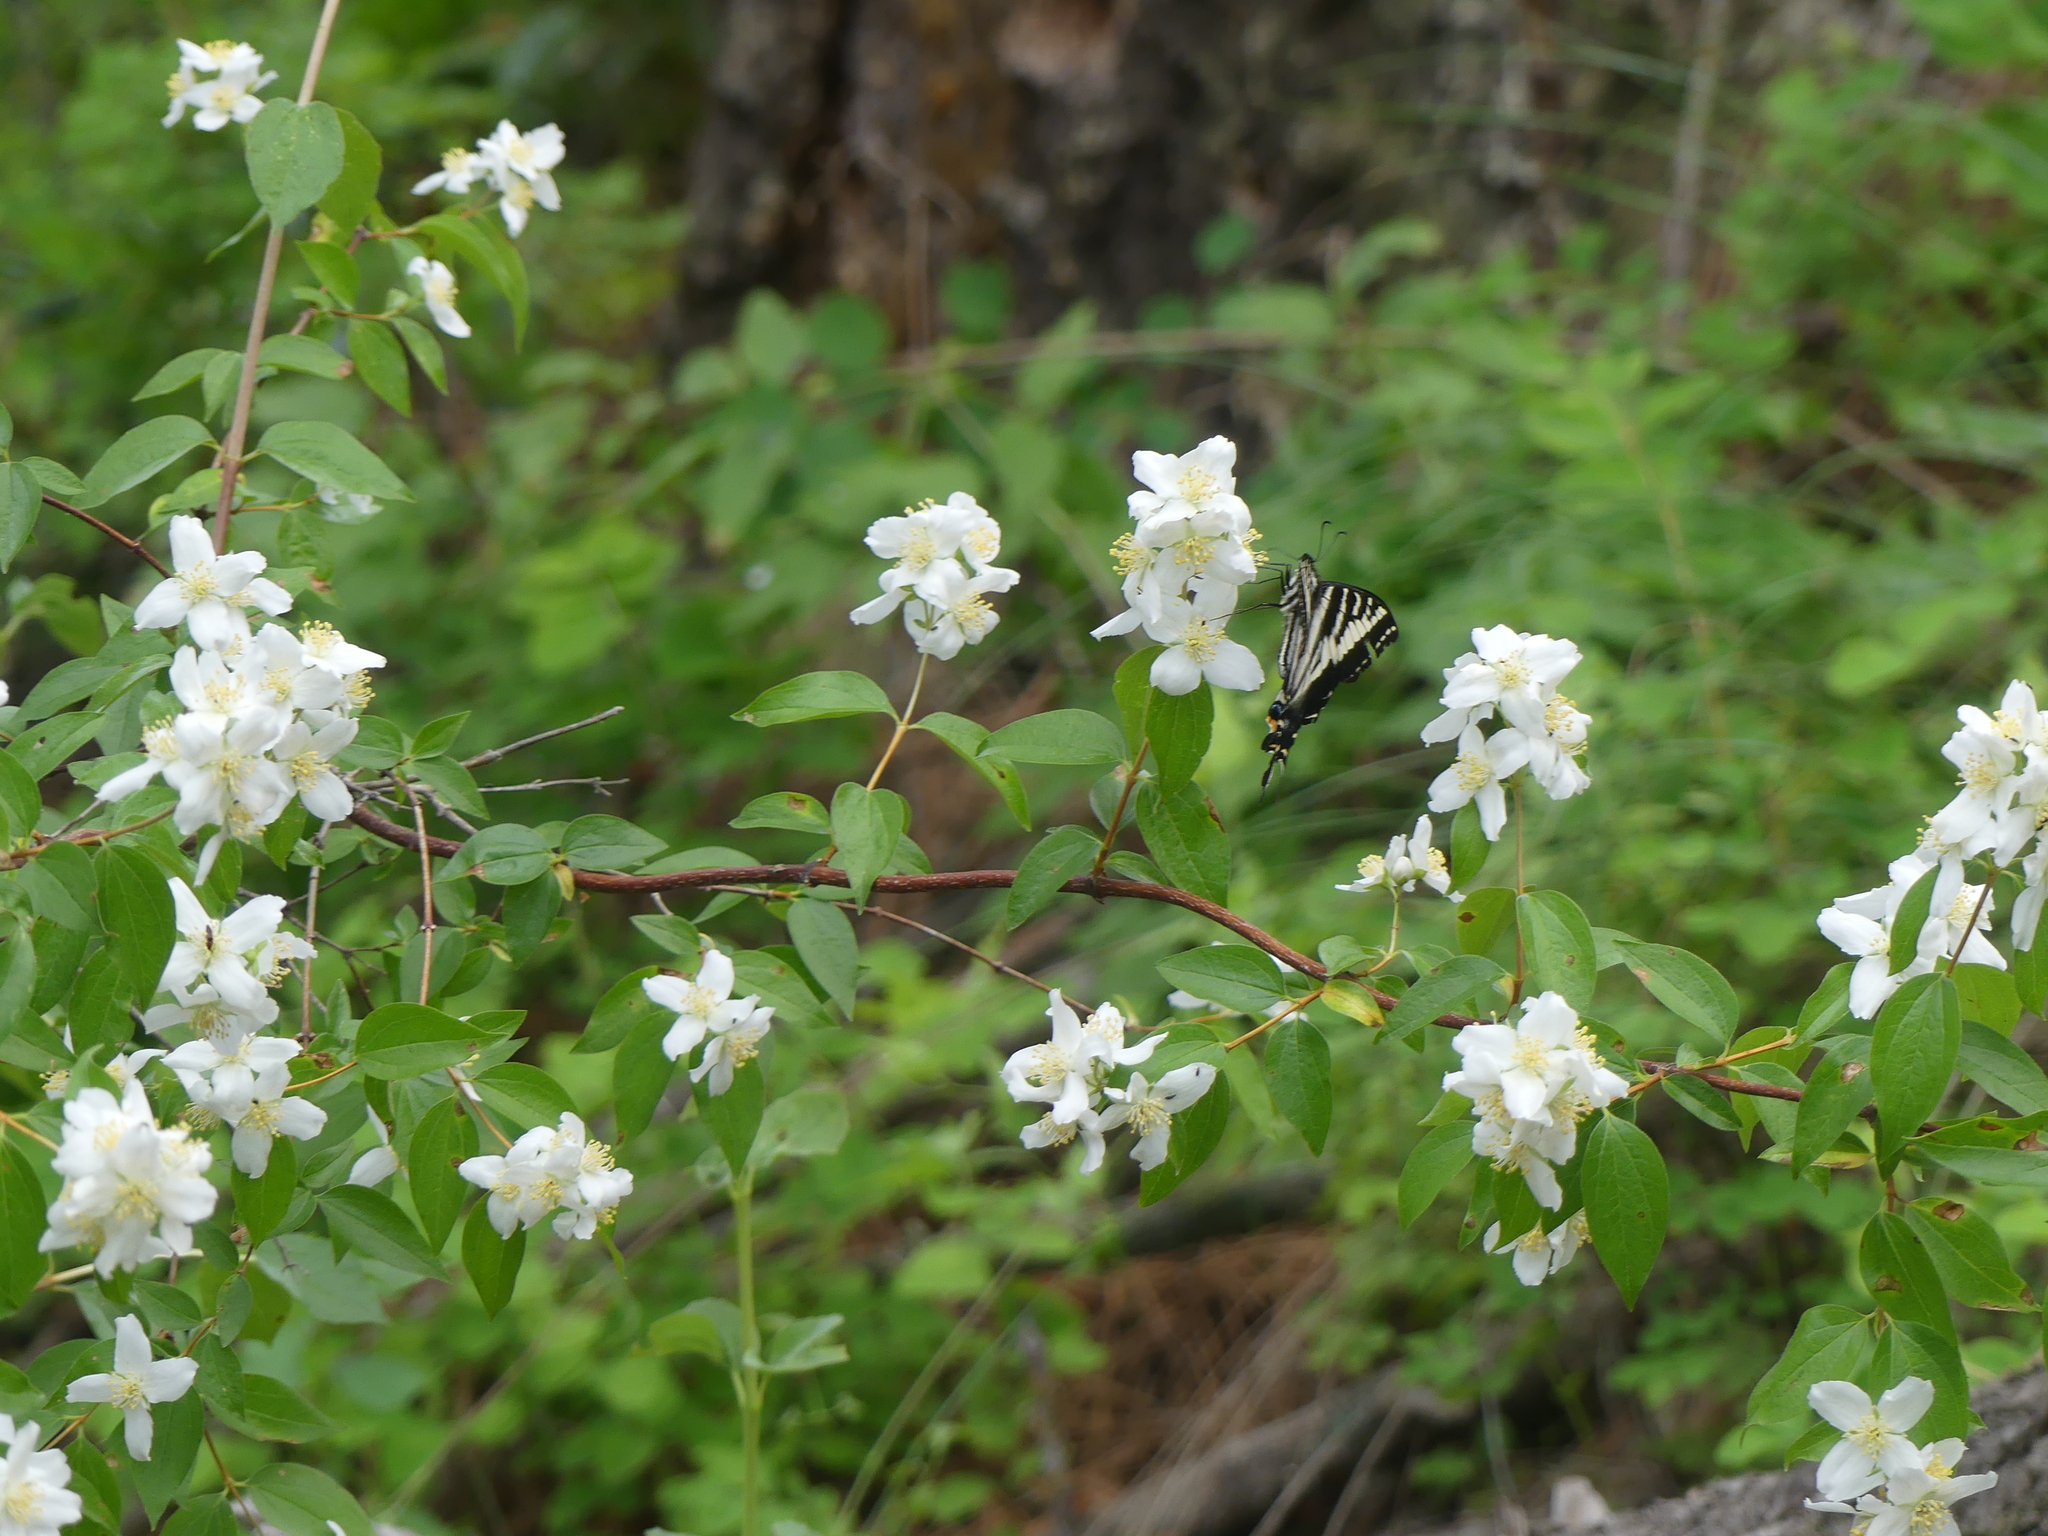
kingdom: Animalia
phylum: Arthropoda
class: Insecta
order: Lepidoptera
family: Papilionidae
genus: Papilio
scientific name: Papilio eurymedon
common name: Pale tiger swallowtail
